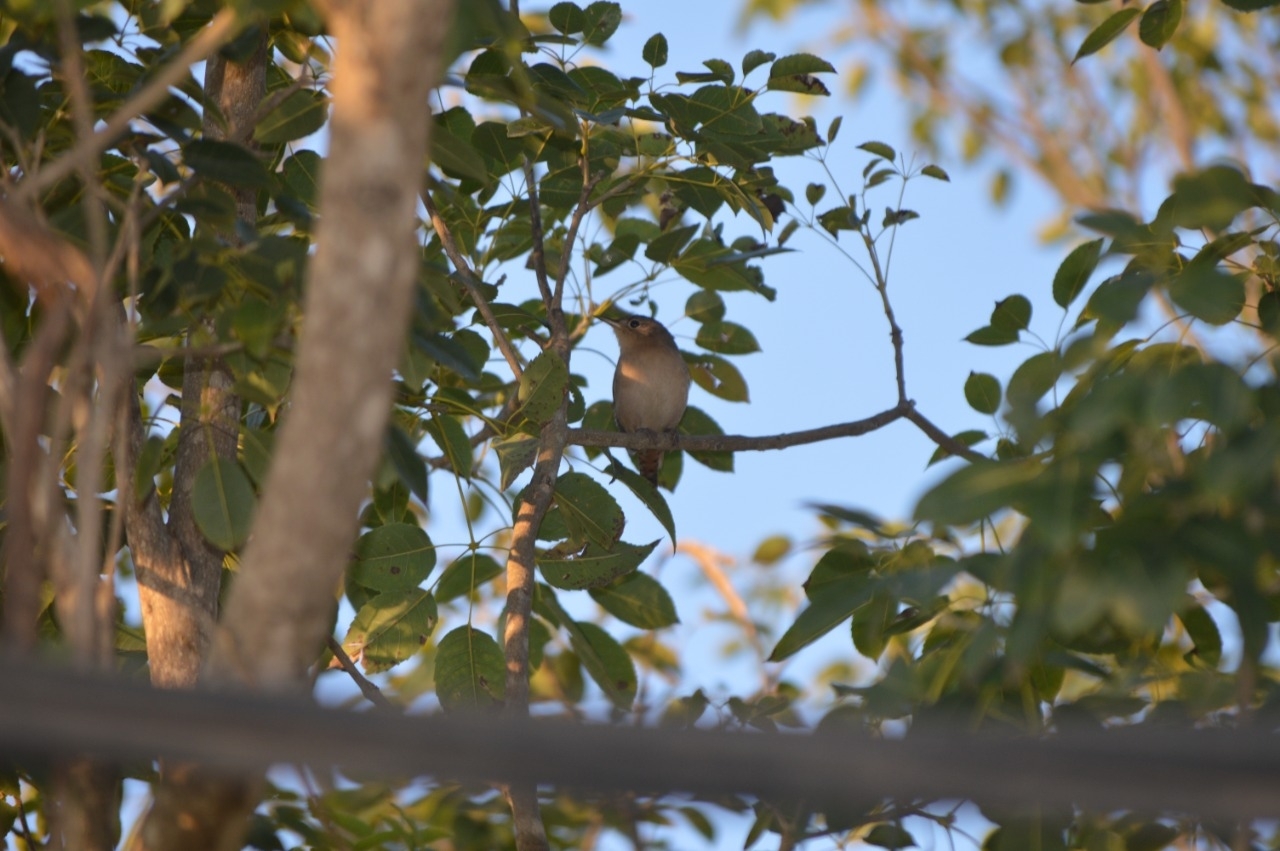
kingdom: Animalia
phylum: Chordata
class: Aves
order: Passeriformes
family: Troglodytidae
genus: Troglodytes
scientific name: Troglodytes aedon
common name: House wren
